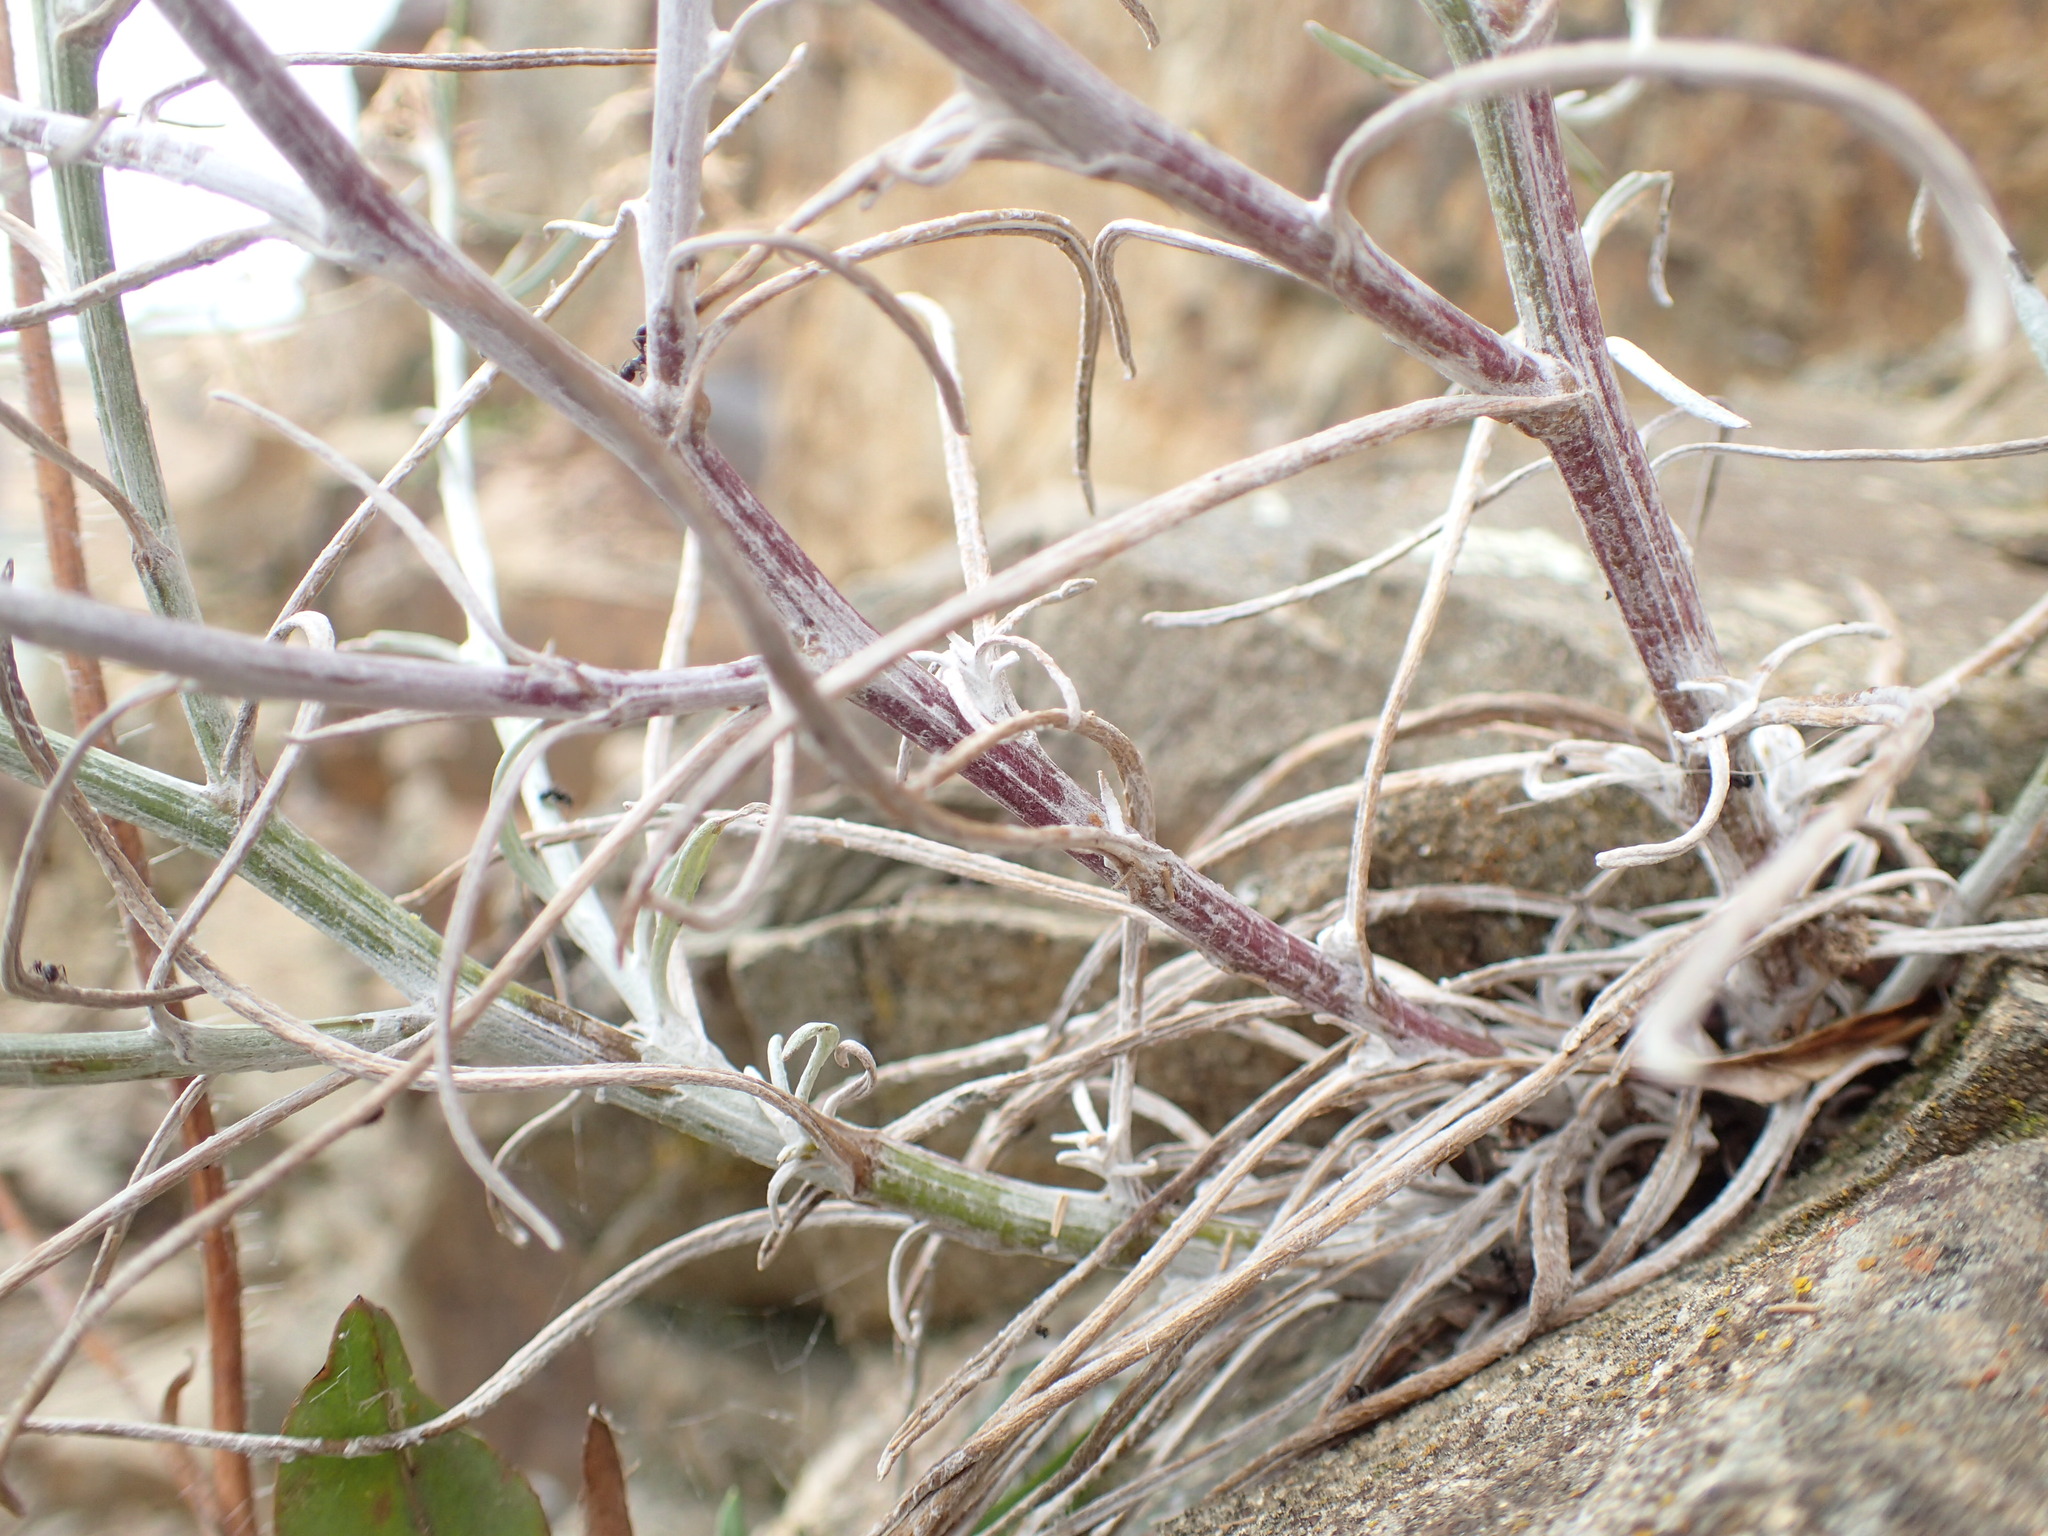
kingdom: Plantae
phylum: Tracheophyta
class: Magnoliopsida
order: Asterales
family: Asteraceae
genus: Senecio
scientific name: Senecio quadridentatus
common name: Cotton fireweed
